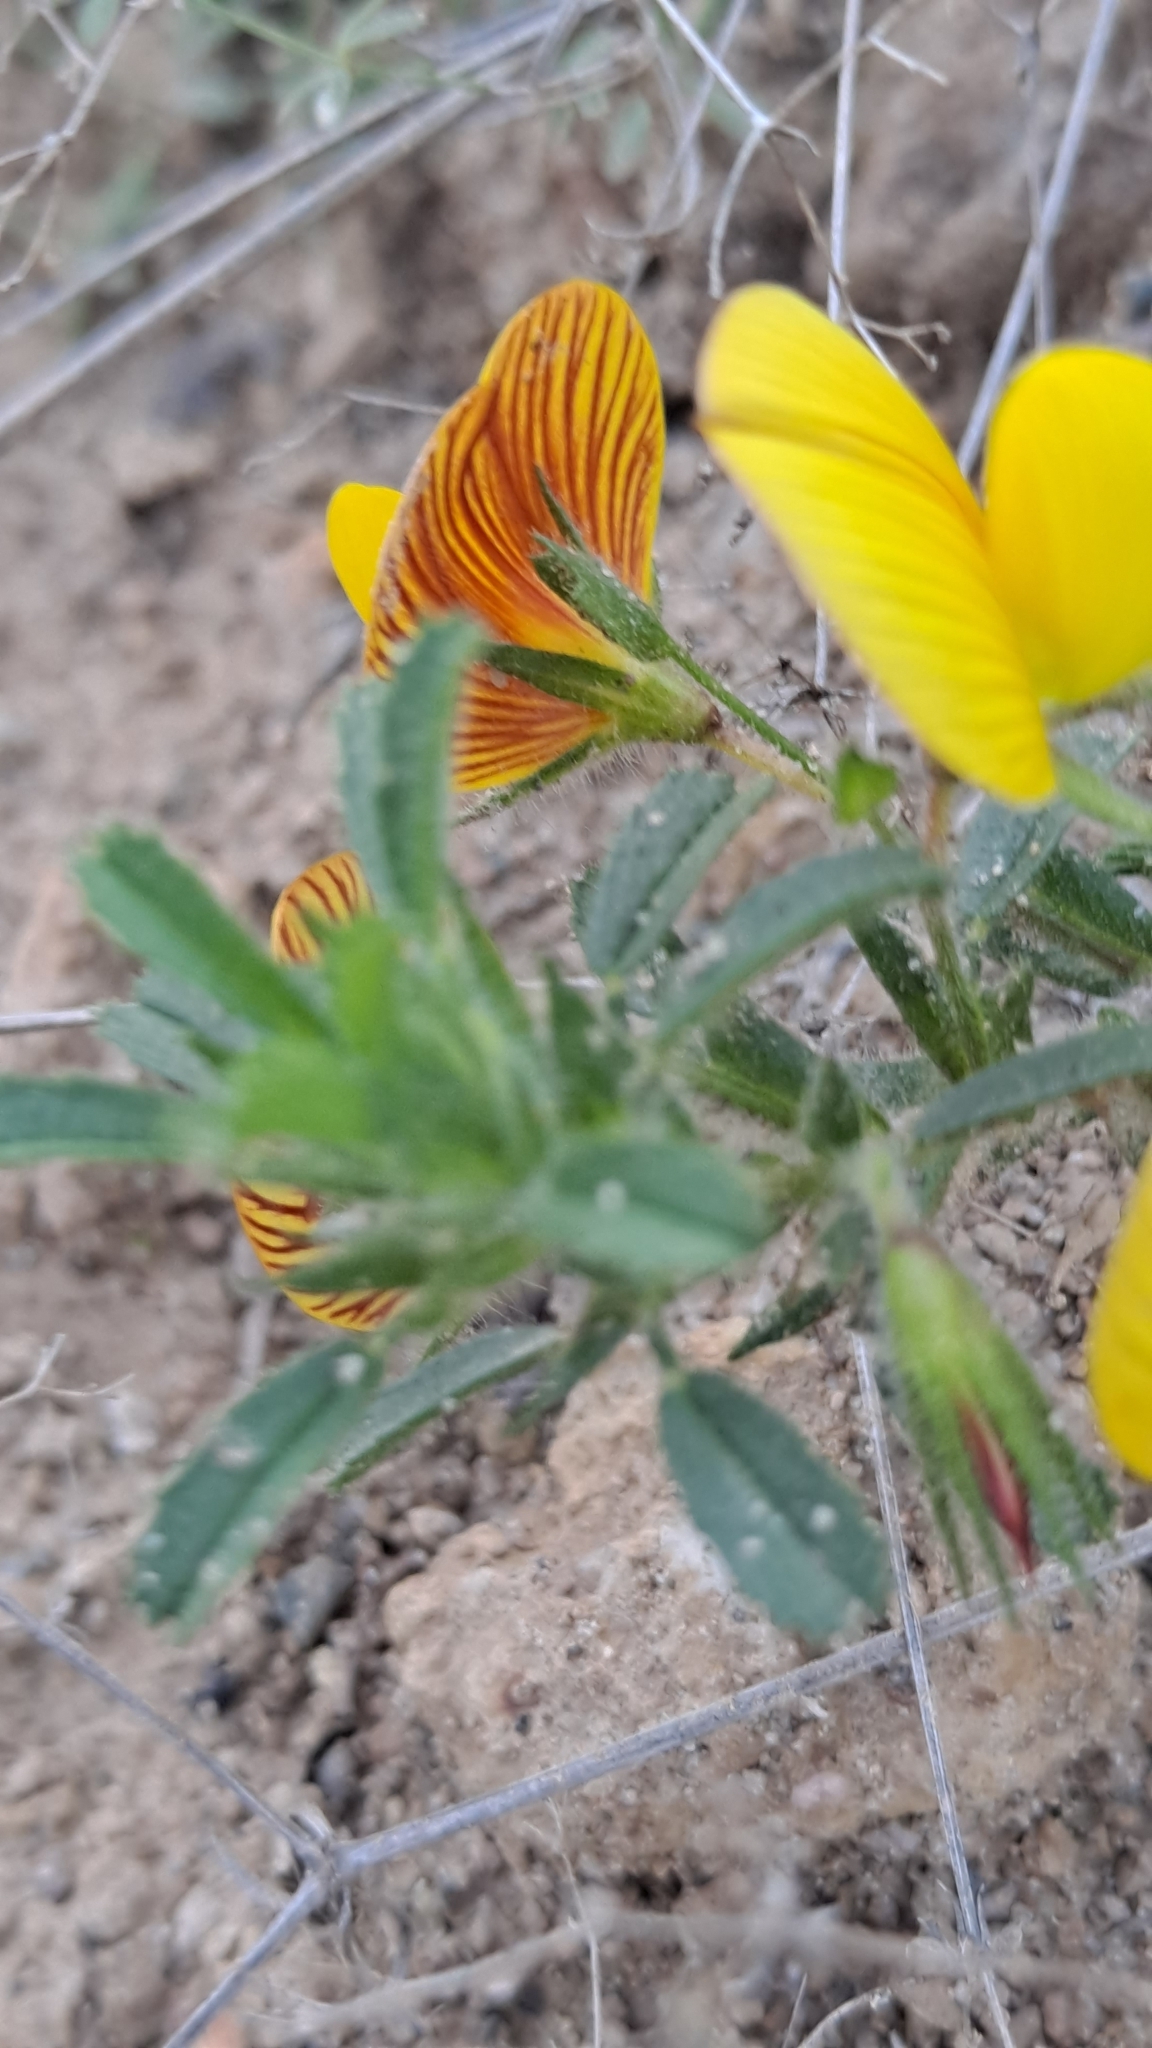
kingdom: Plantae
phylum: Tracheophyta
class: Magnoliopsida
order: Fabales
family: Fabaceae
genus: Ononis
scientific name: Ononis natrix
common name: Yellow restharrow
